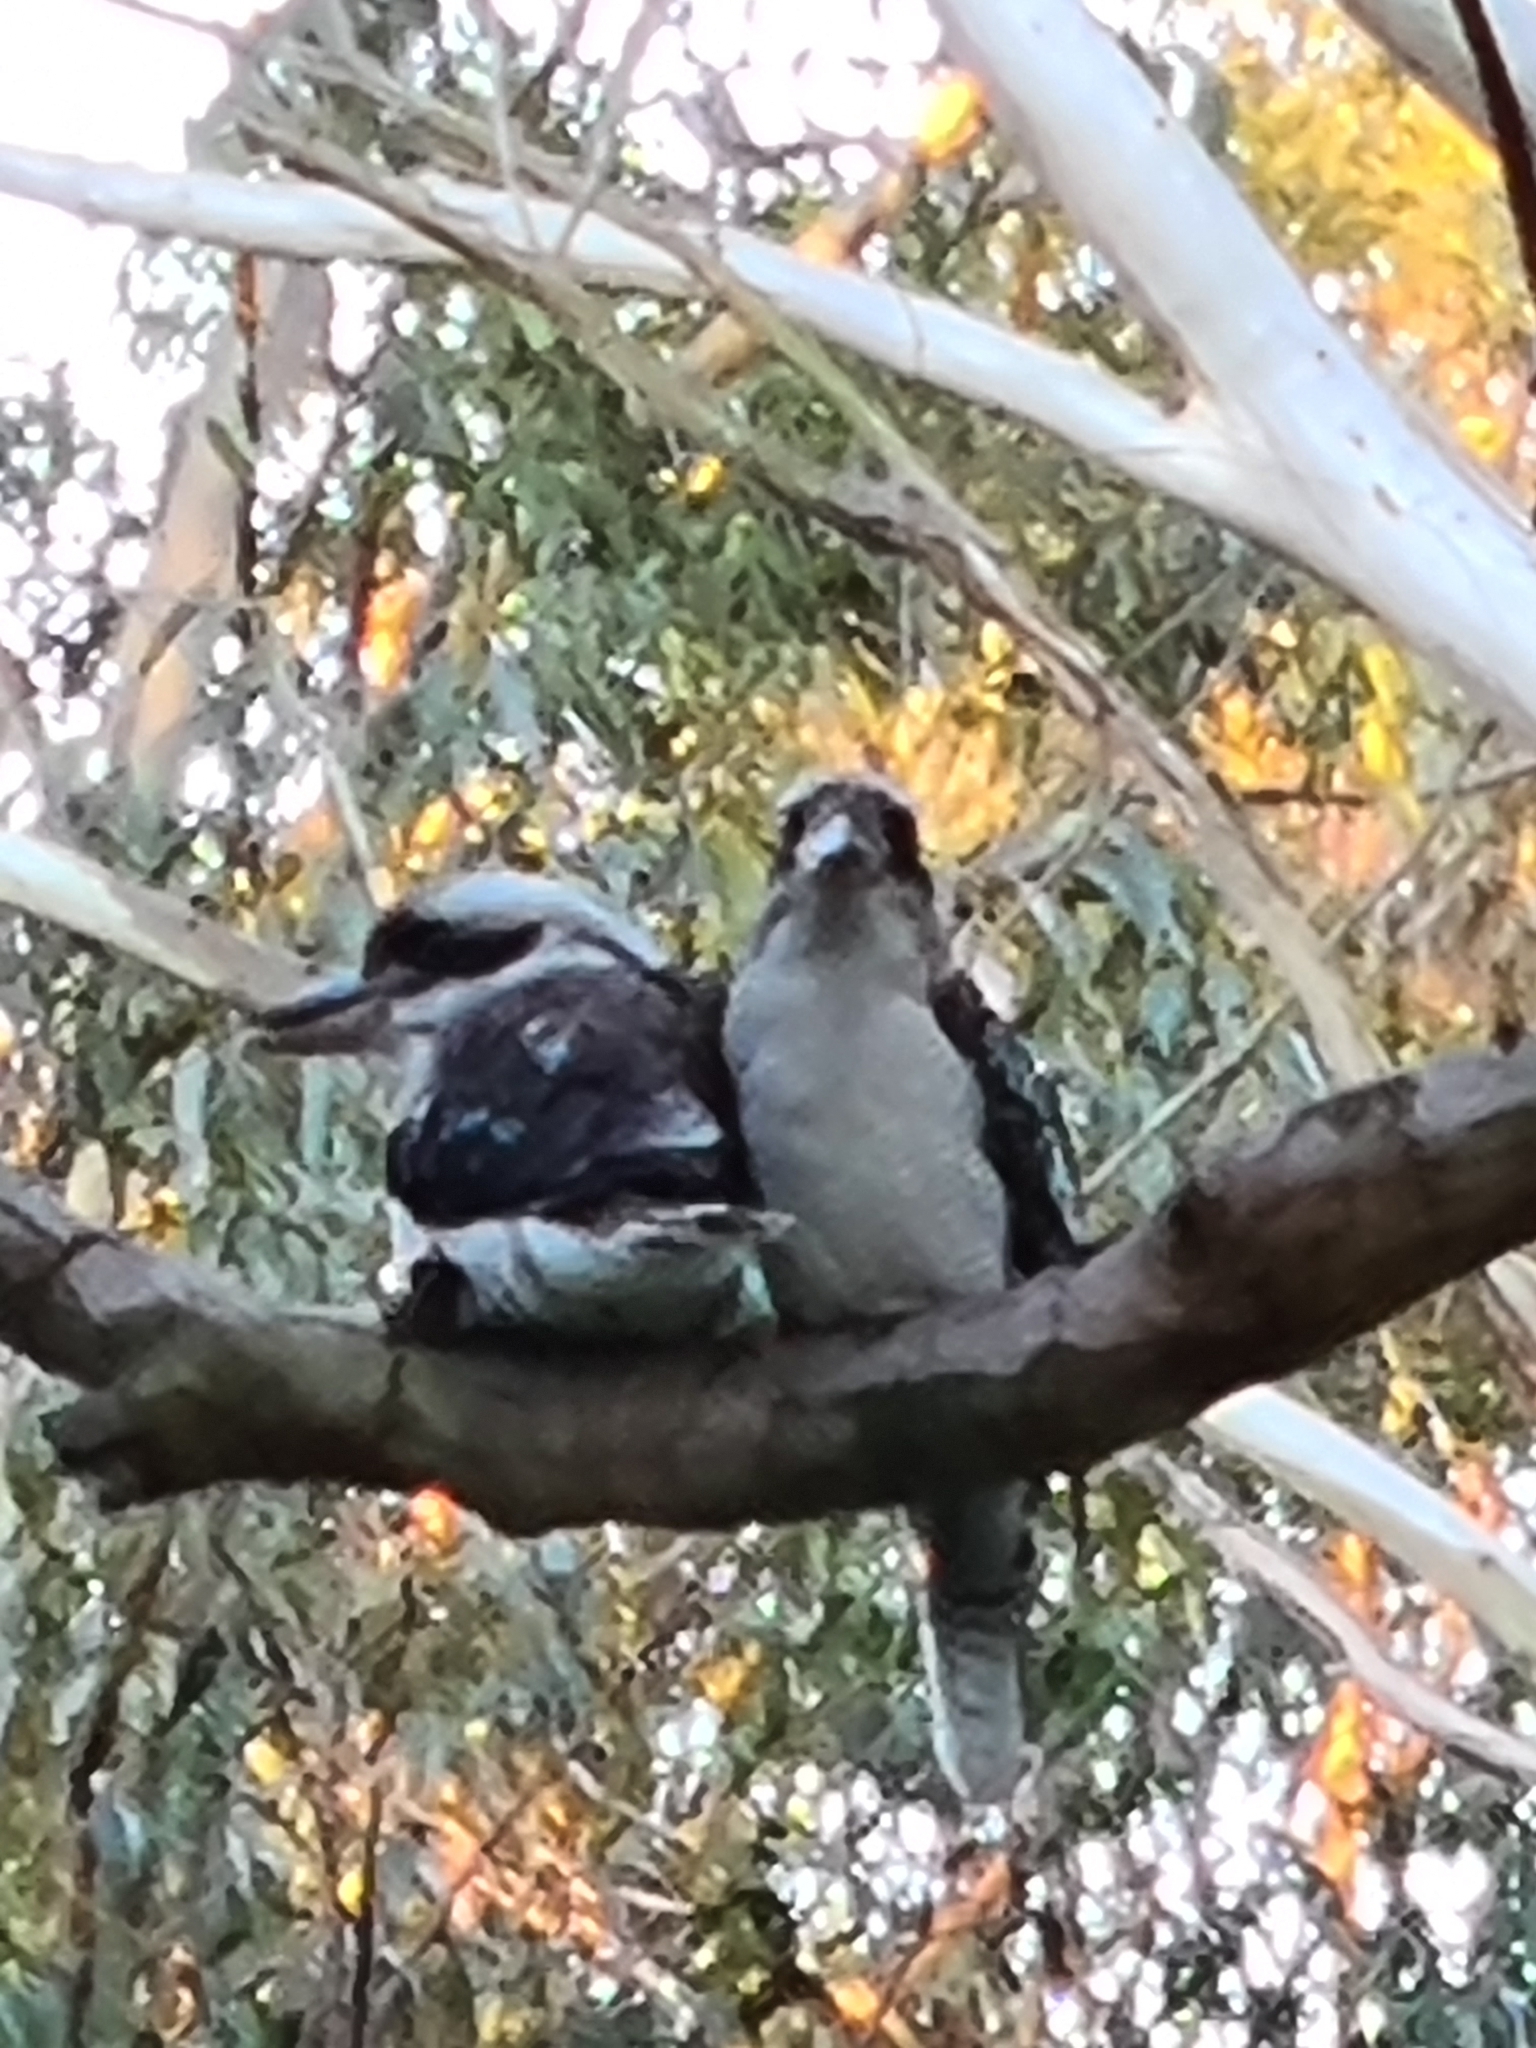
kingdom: Animalia
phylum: Chordata
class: Aves
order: Coraciiformes
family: Alcedinidae
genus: Dacelo
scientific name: Dacelo novaeguineae
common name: Laughing kookaburra
